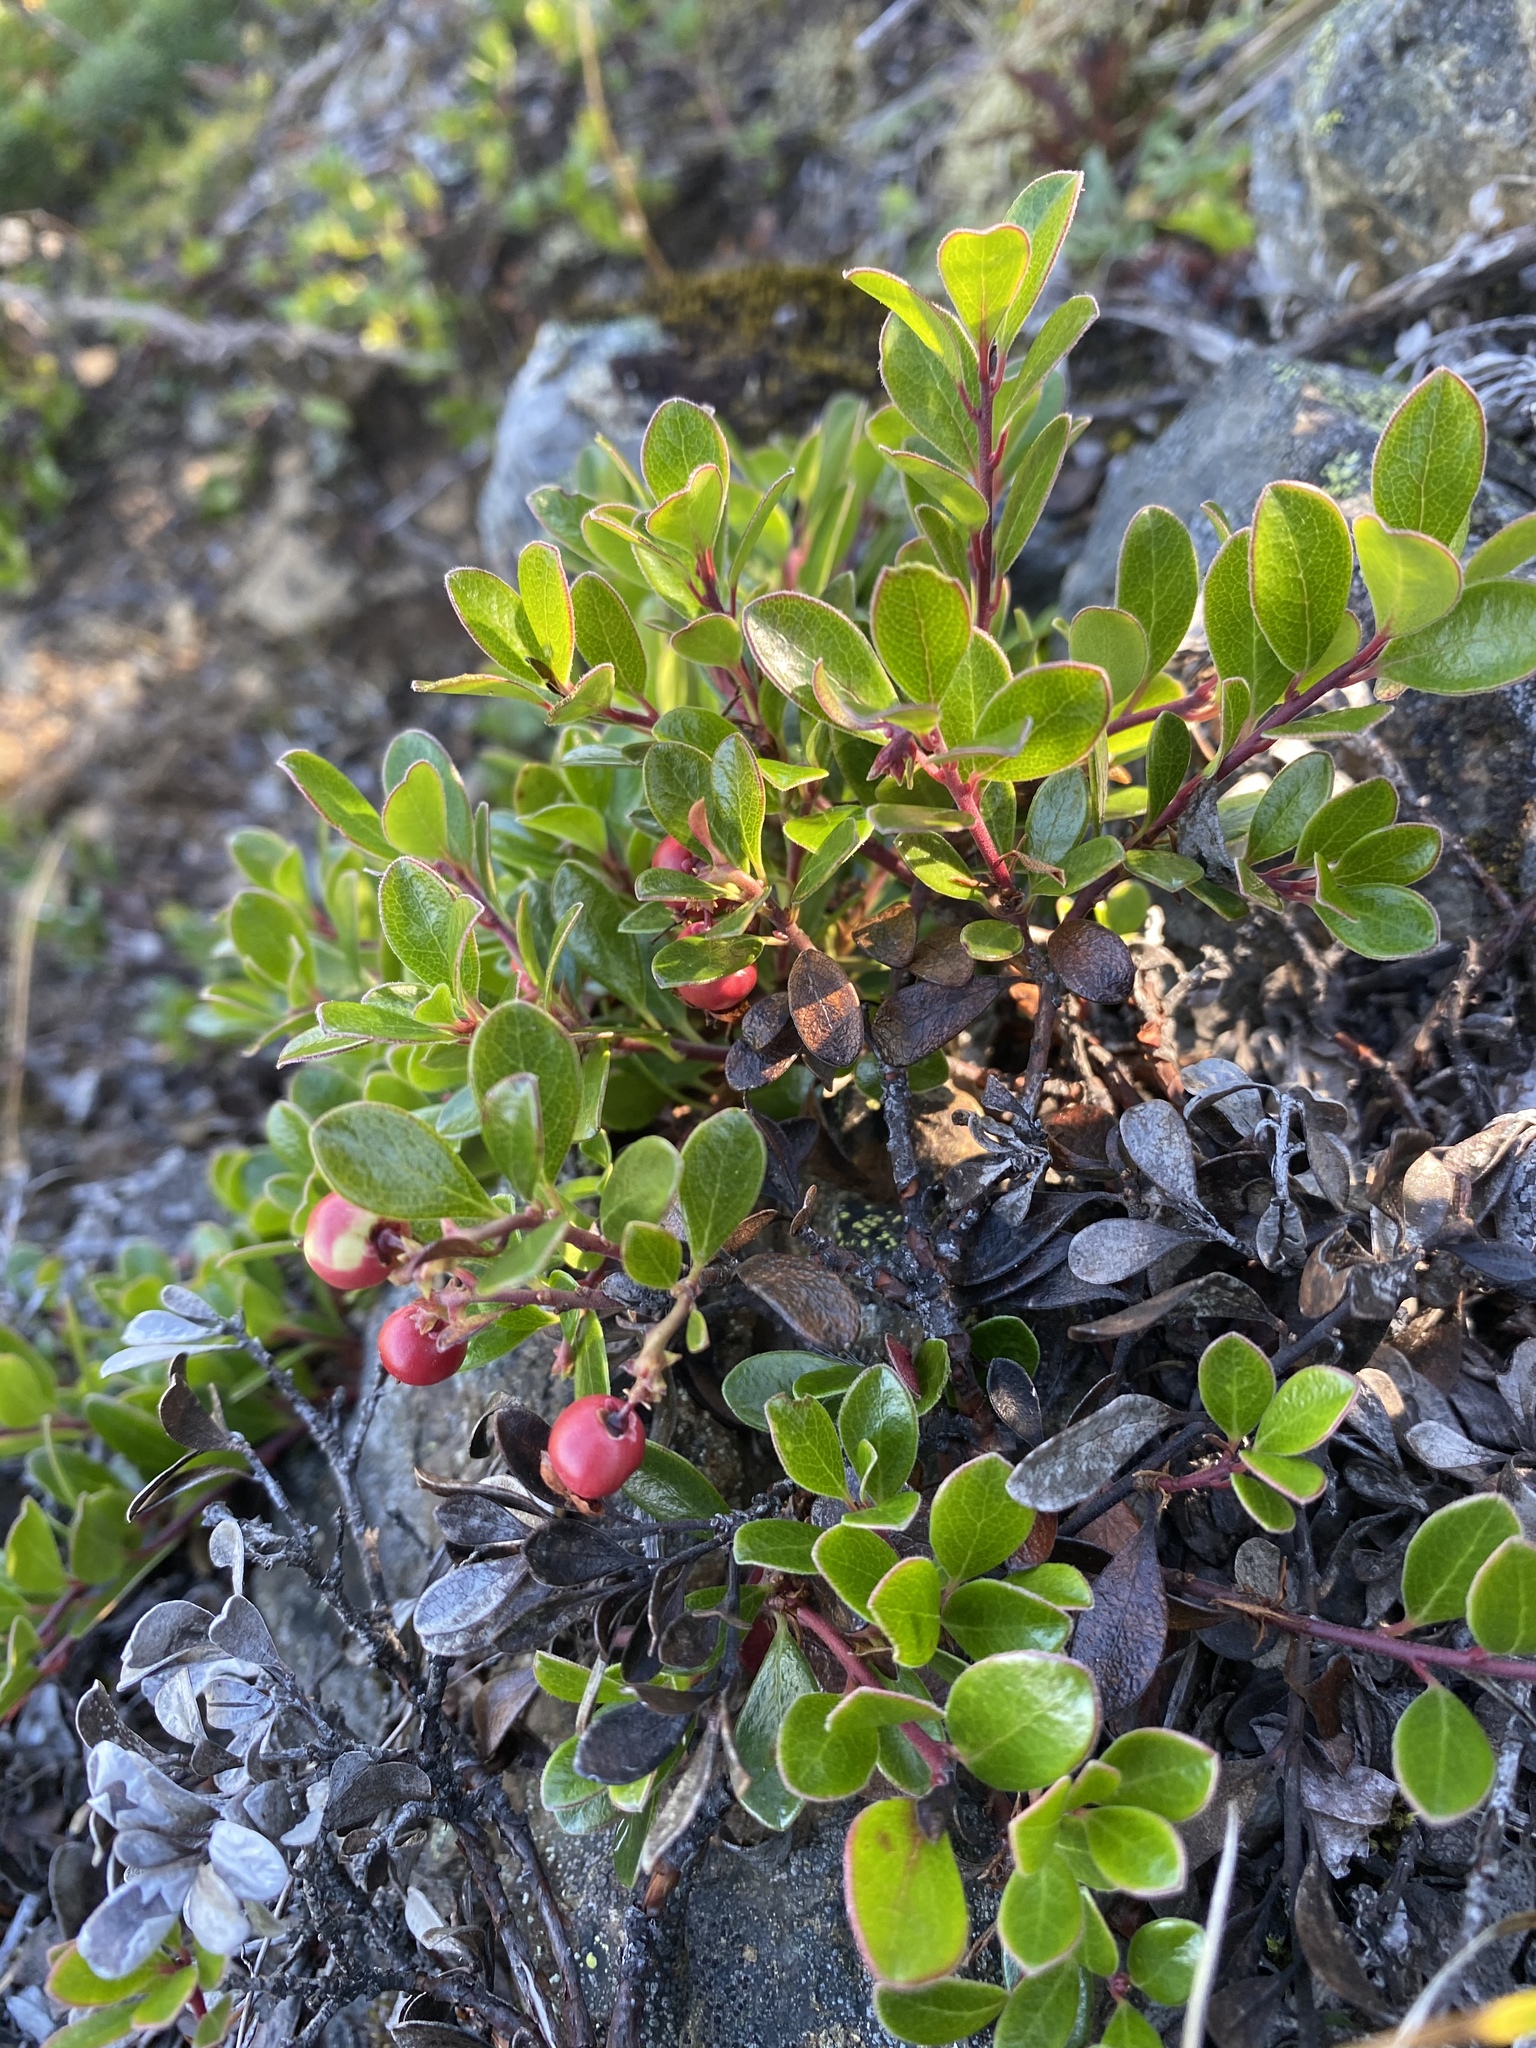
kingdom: Plantae
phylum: Tracheophyta
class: Magnoliopsida
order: Ericales
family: Ericaceae
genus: Arctostaphylos
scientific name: Arctostaphylos uva-ursi
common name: Bearberry
